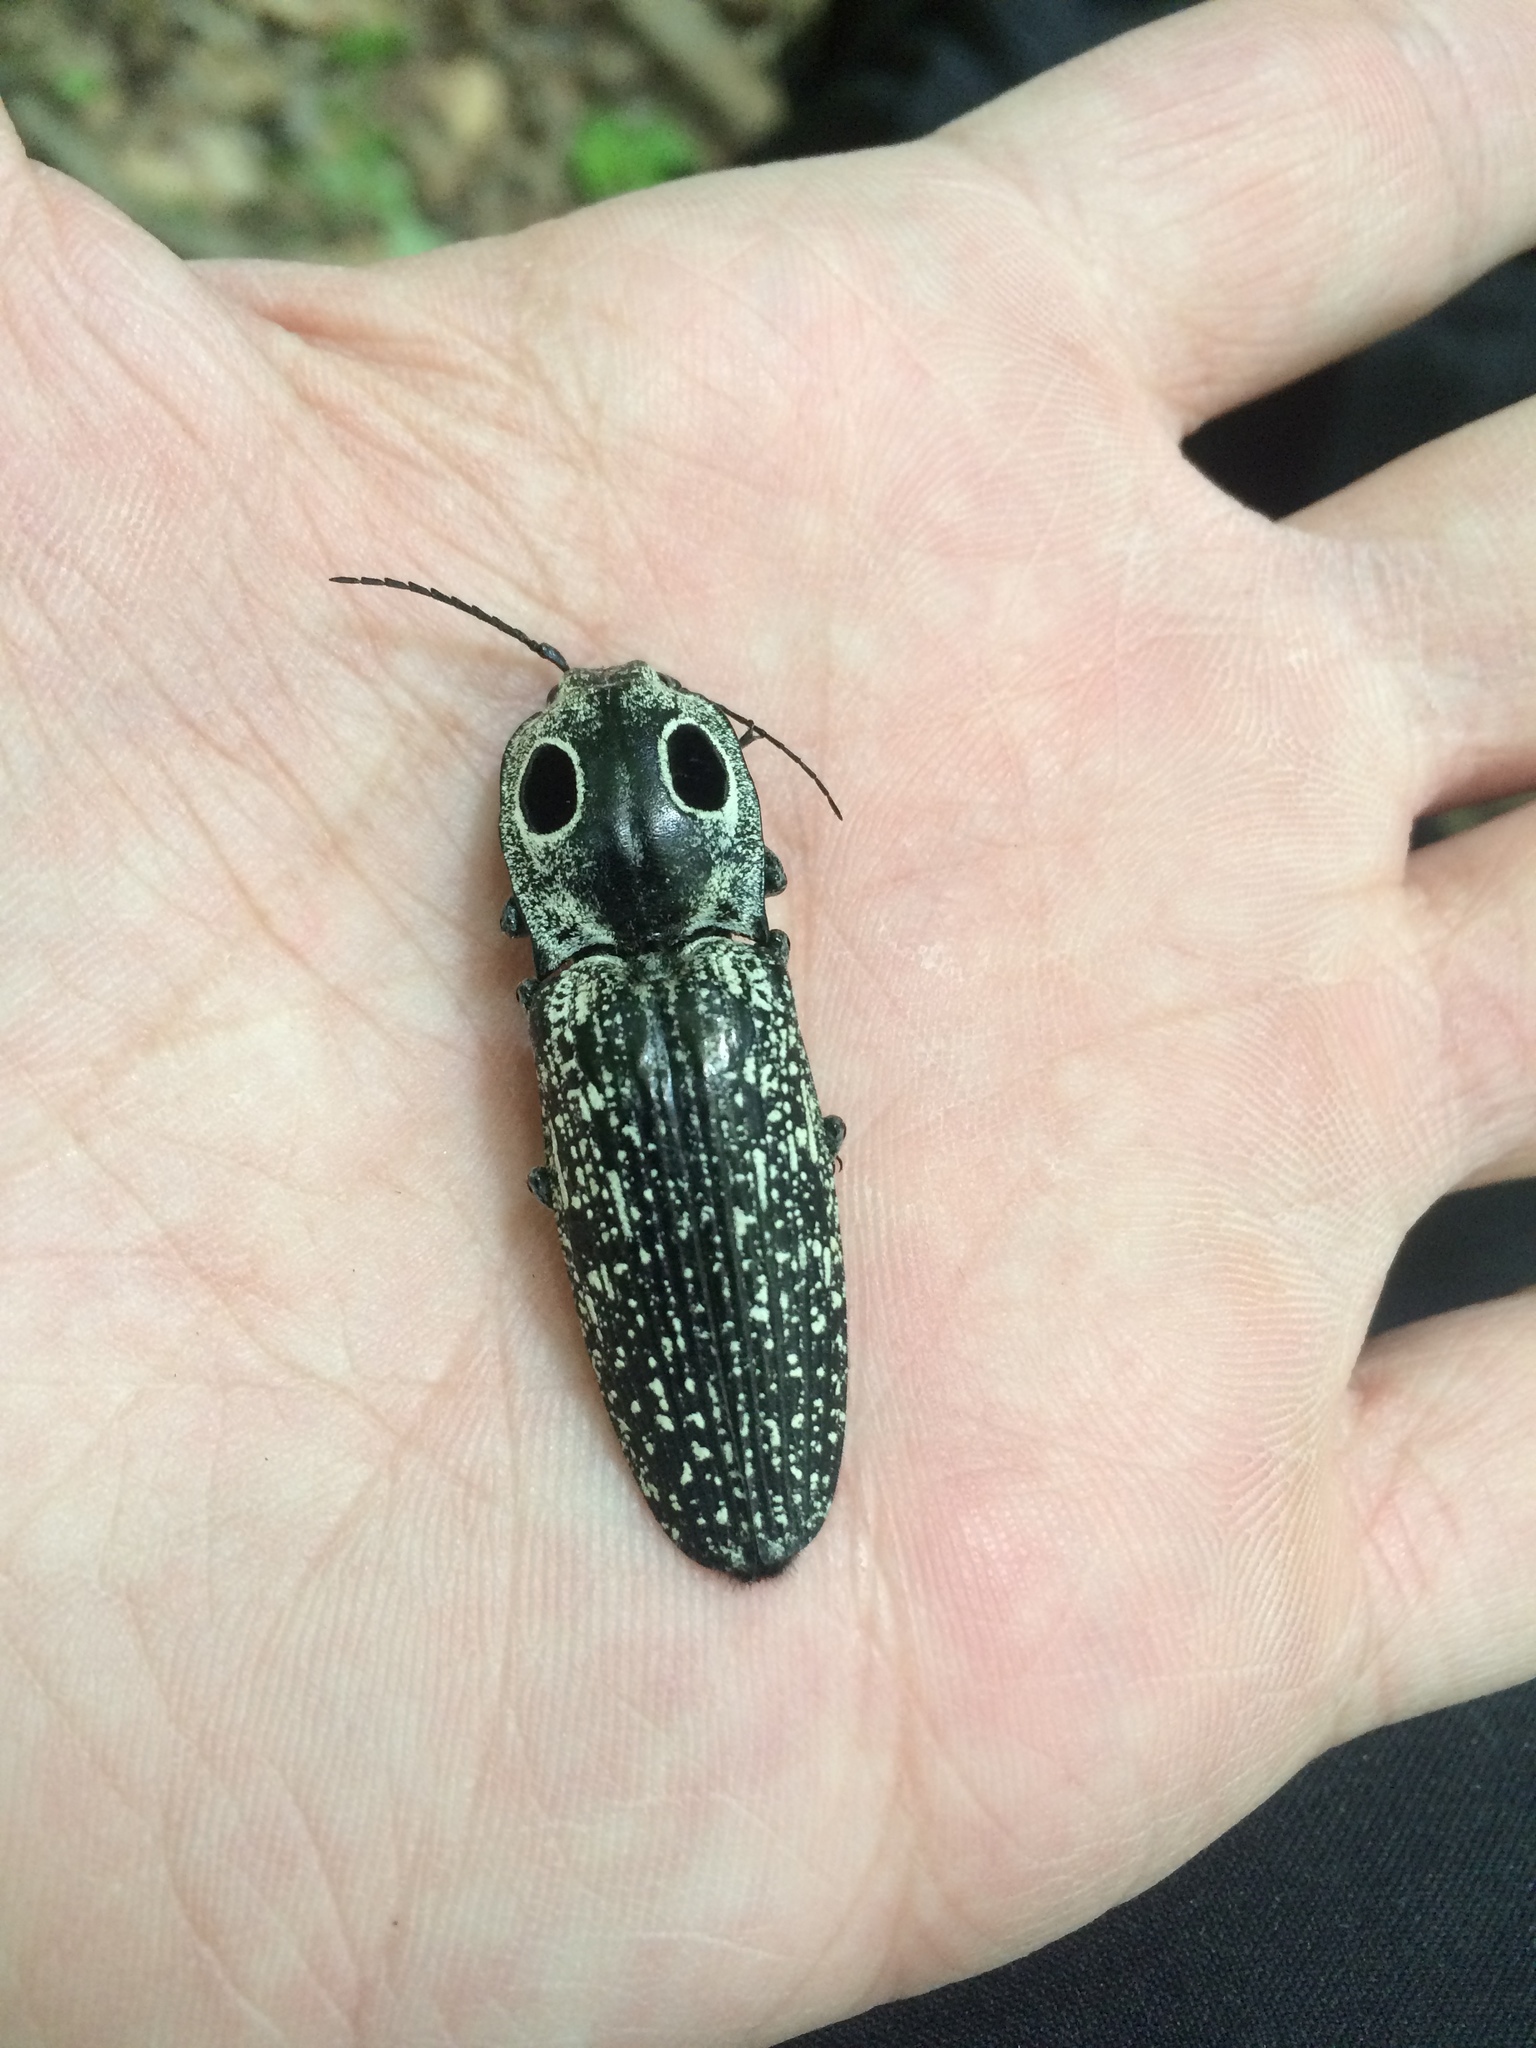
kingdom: Animalia
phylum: Arthropoda
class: Insecta
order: Coleoptera
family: Elateridae
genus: Alaus
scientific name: Alaus oculatus
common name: Eastern eyed click beetle
